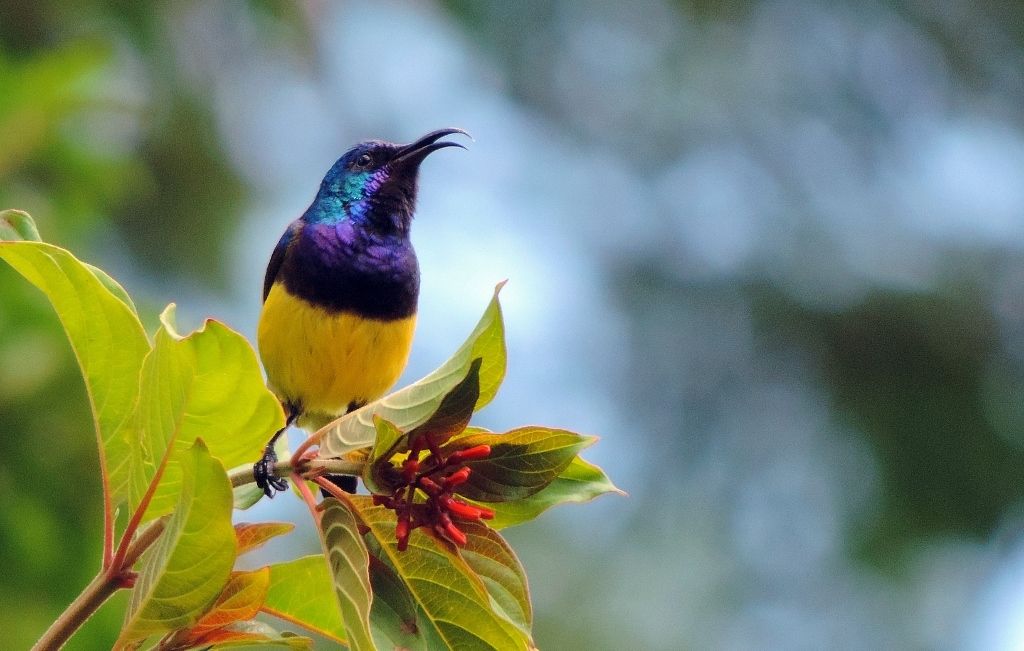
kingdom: Animalia
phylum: Chordata
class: Aves
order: Passeriformes
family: Nectariniidae
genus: Cinnyris
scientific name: Cinnyris venustus
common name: Variable sunbird
